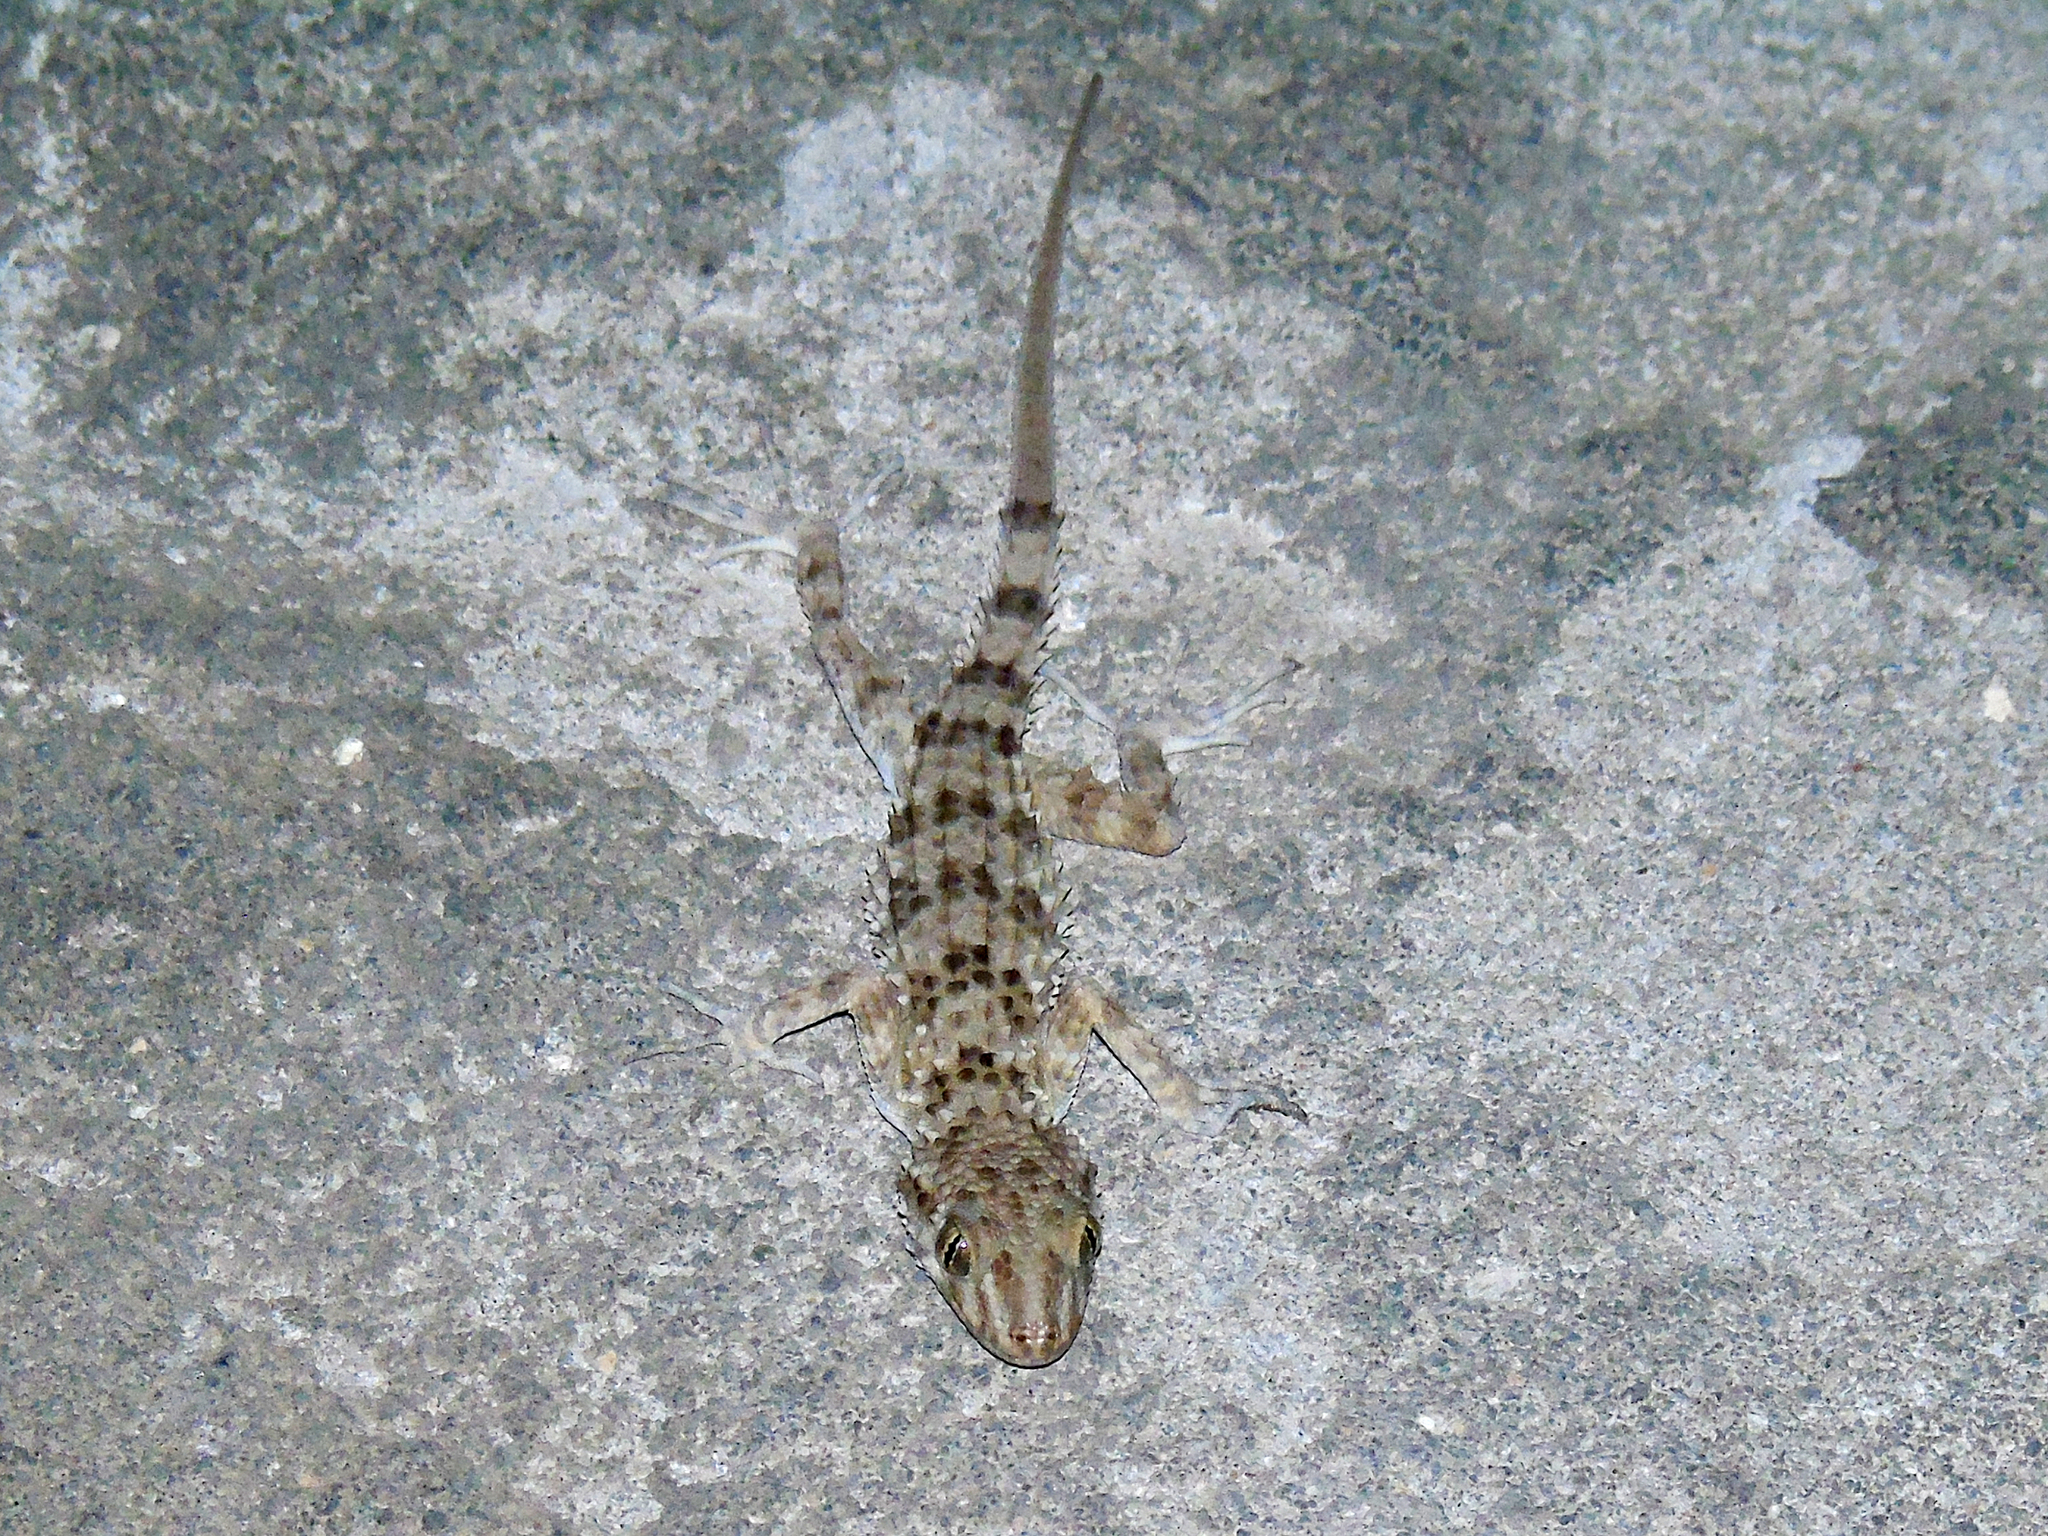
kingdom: Animalia
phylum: Chordata
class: Squamata
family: Gekkonidae
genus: Tenuidactylus
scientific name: Tenuidactylus caspius
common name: Caspian bent-toed gecko
